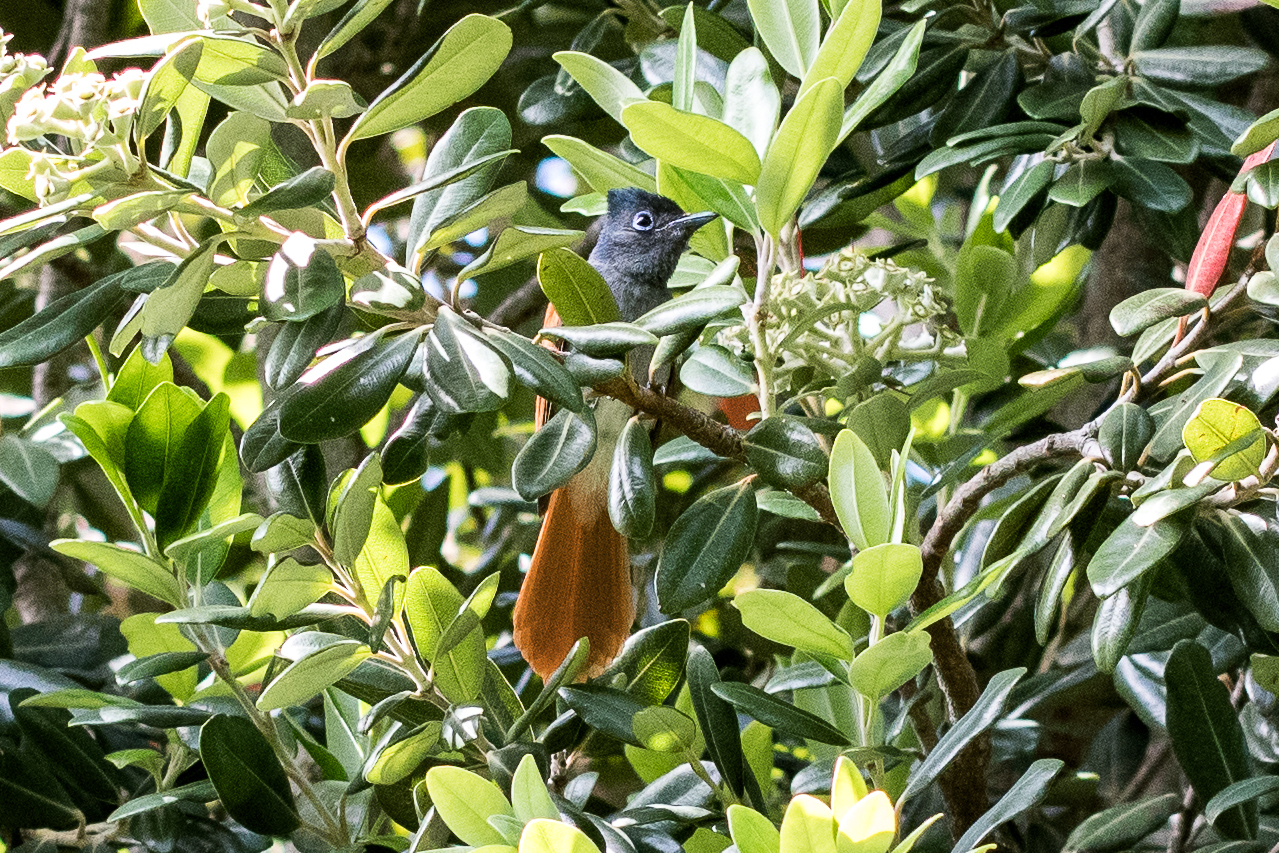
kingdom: Animalia
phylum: Chordata
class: Aves
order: Passeriformes
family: Monarchidae
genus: Terpsiphone
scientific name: Terpsiphone viridis
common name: African paradise flycatcher
